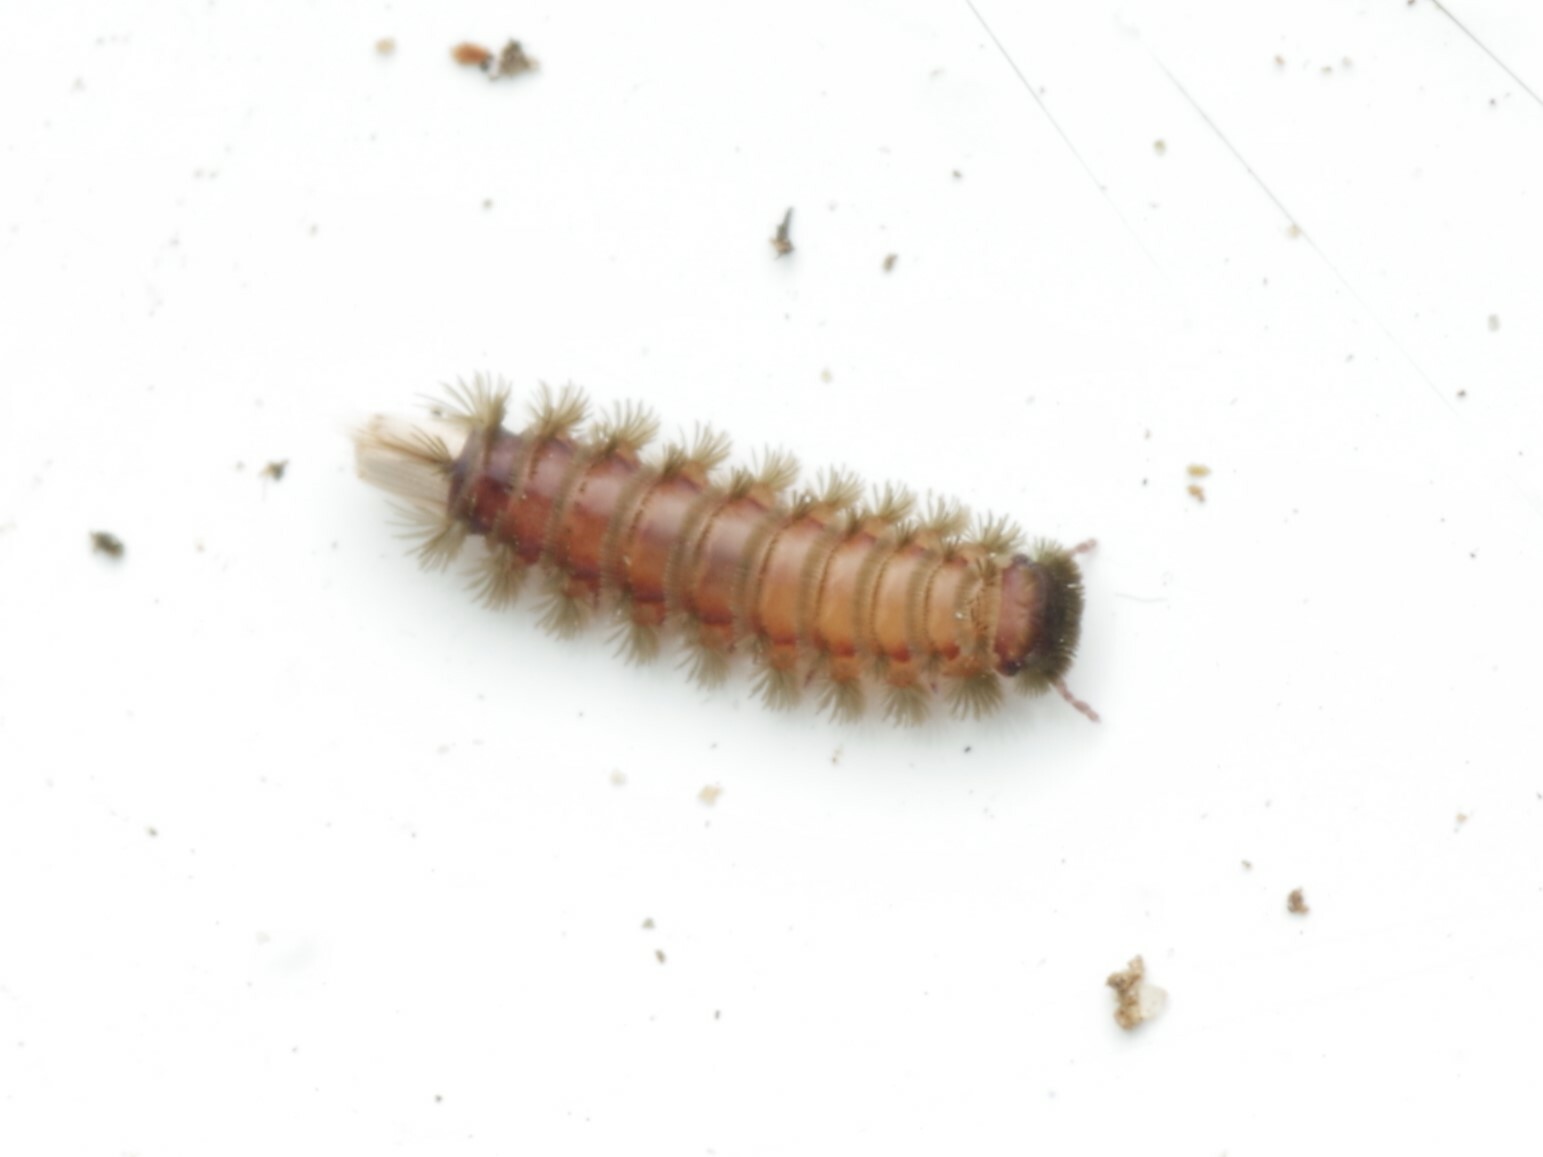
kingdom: Animalia
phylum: Arthropoda
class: Diplopoda
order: Polyxenida
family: Polyxenidae
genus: Polyxenus
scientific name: Polyxenus lagurus
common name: Bristly millipede
